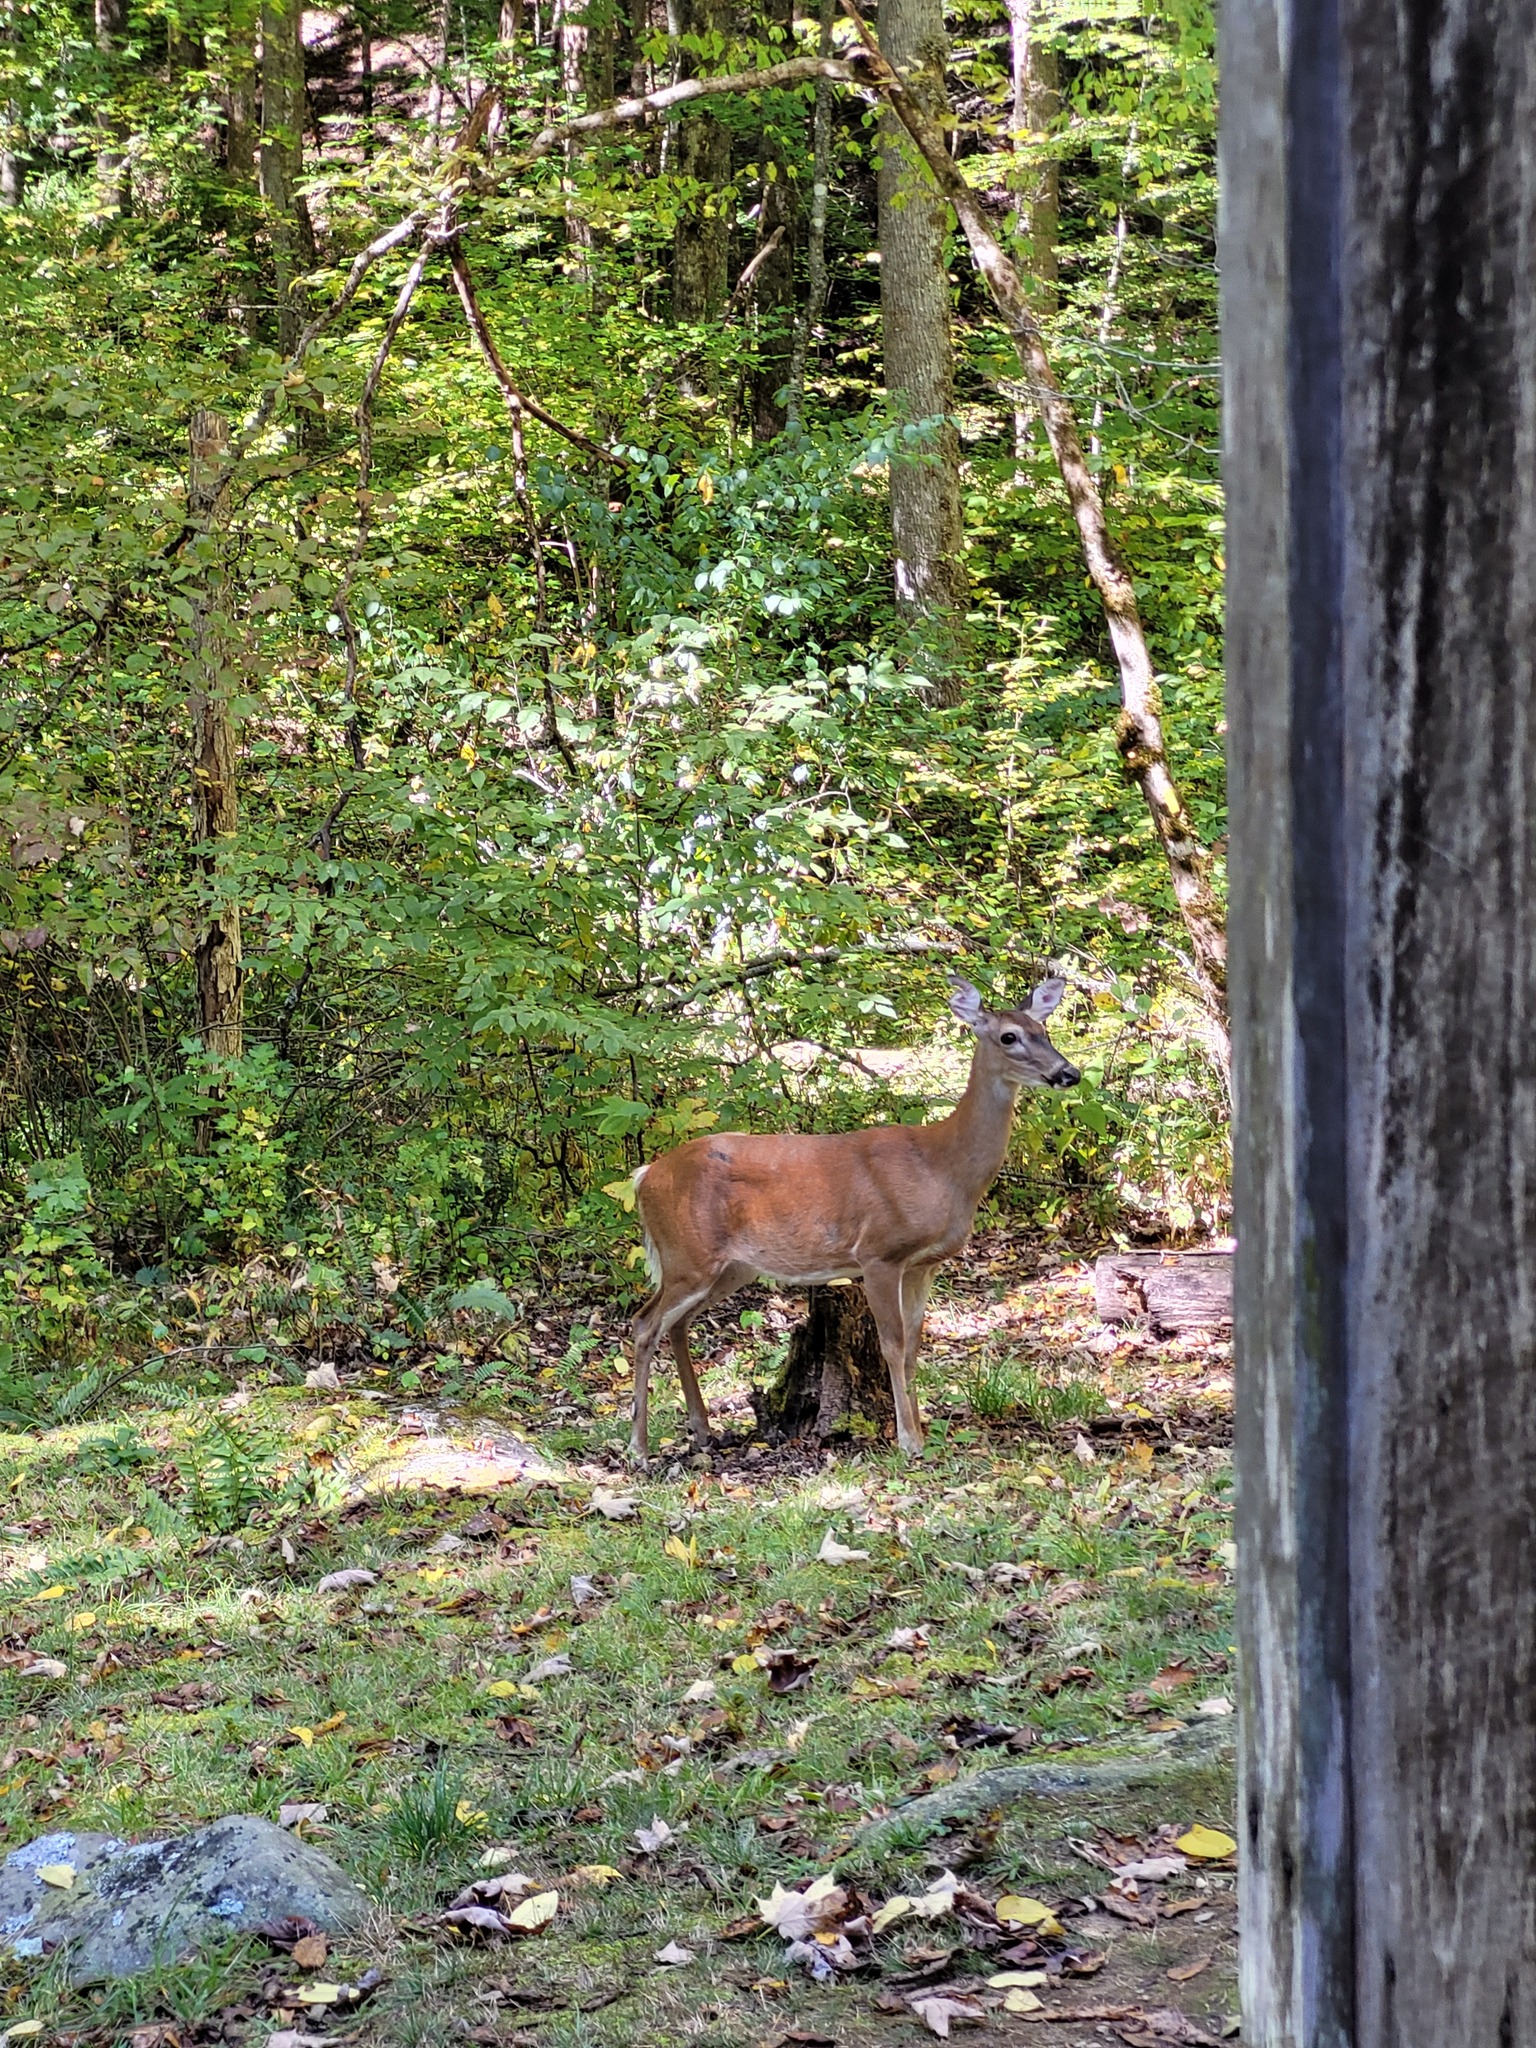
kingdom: Animalia
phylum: Chordata
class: Mammalia
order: Artiodactyla
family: Cervidae
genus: Odocoileus
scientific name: Odocoileus virginianus
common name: White-tailed deer
